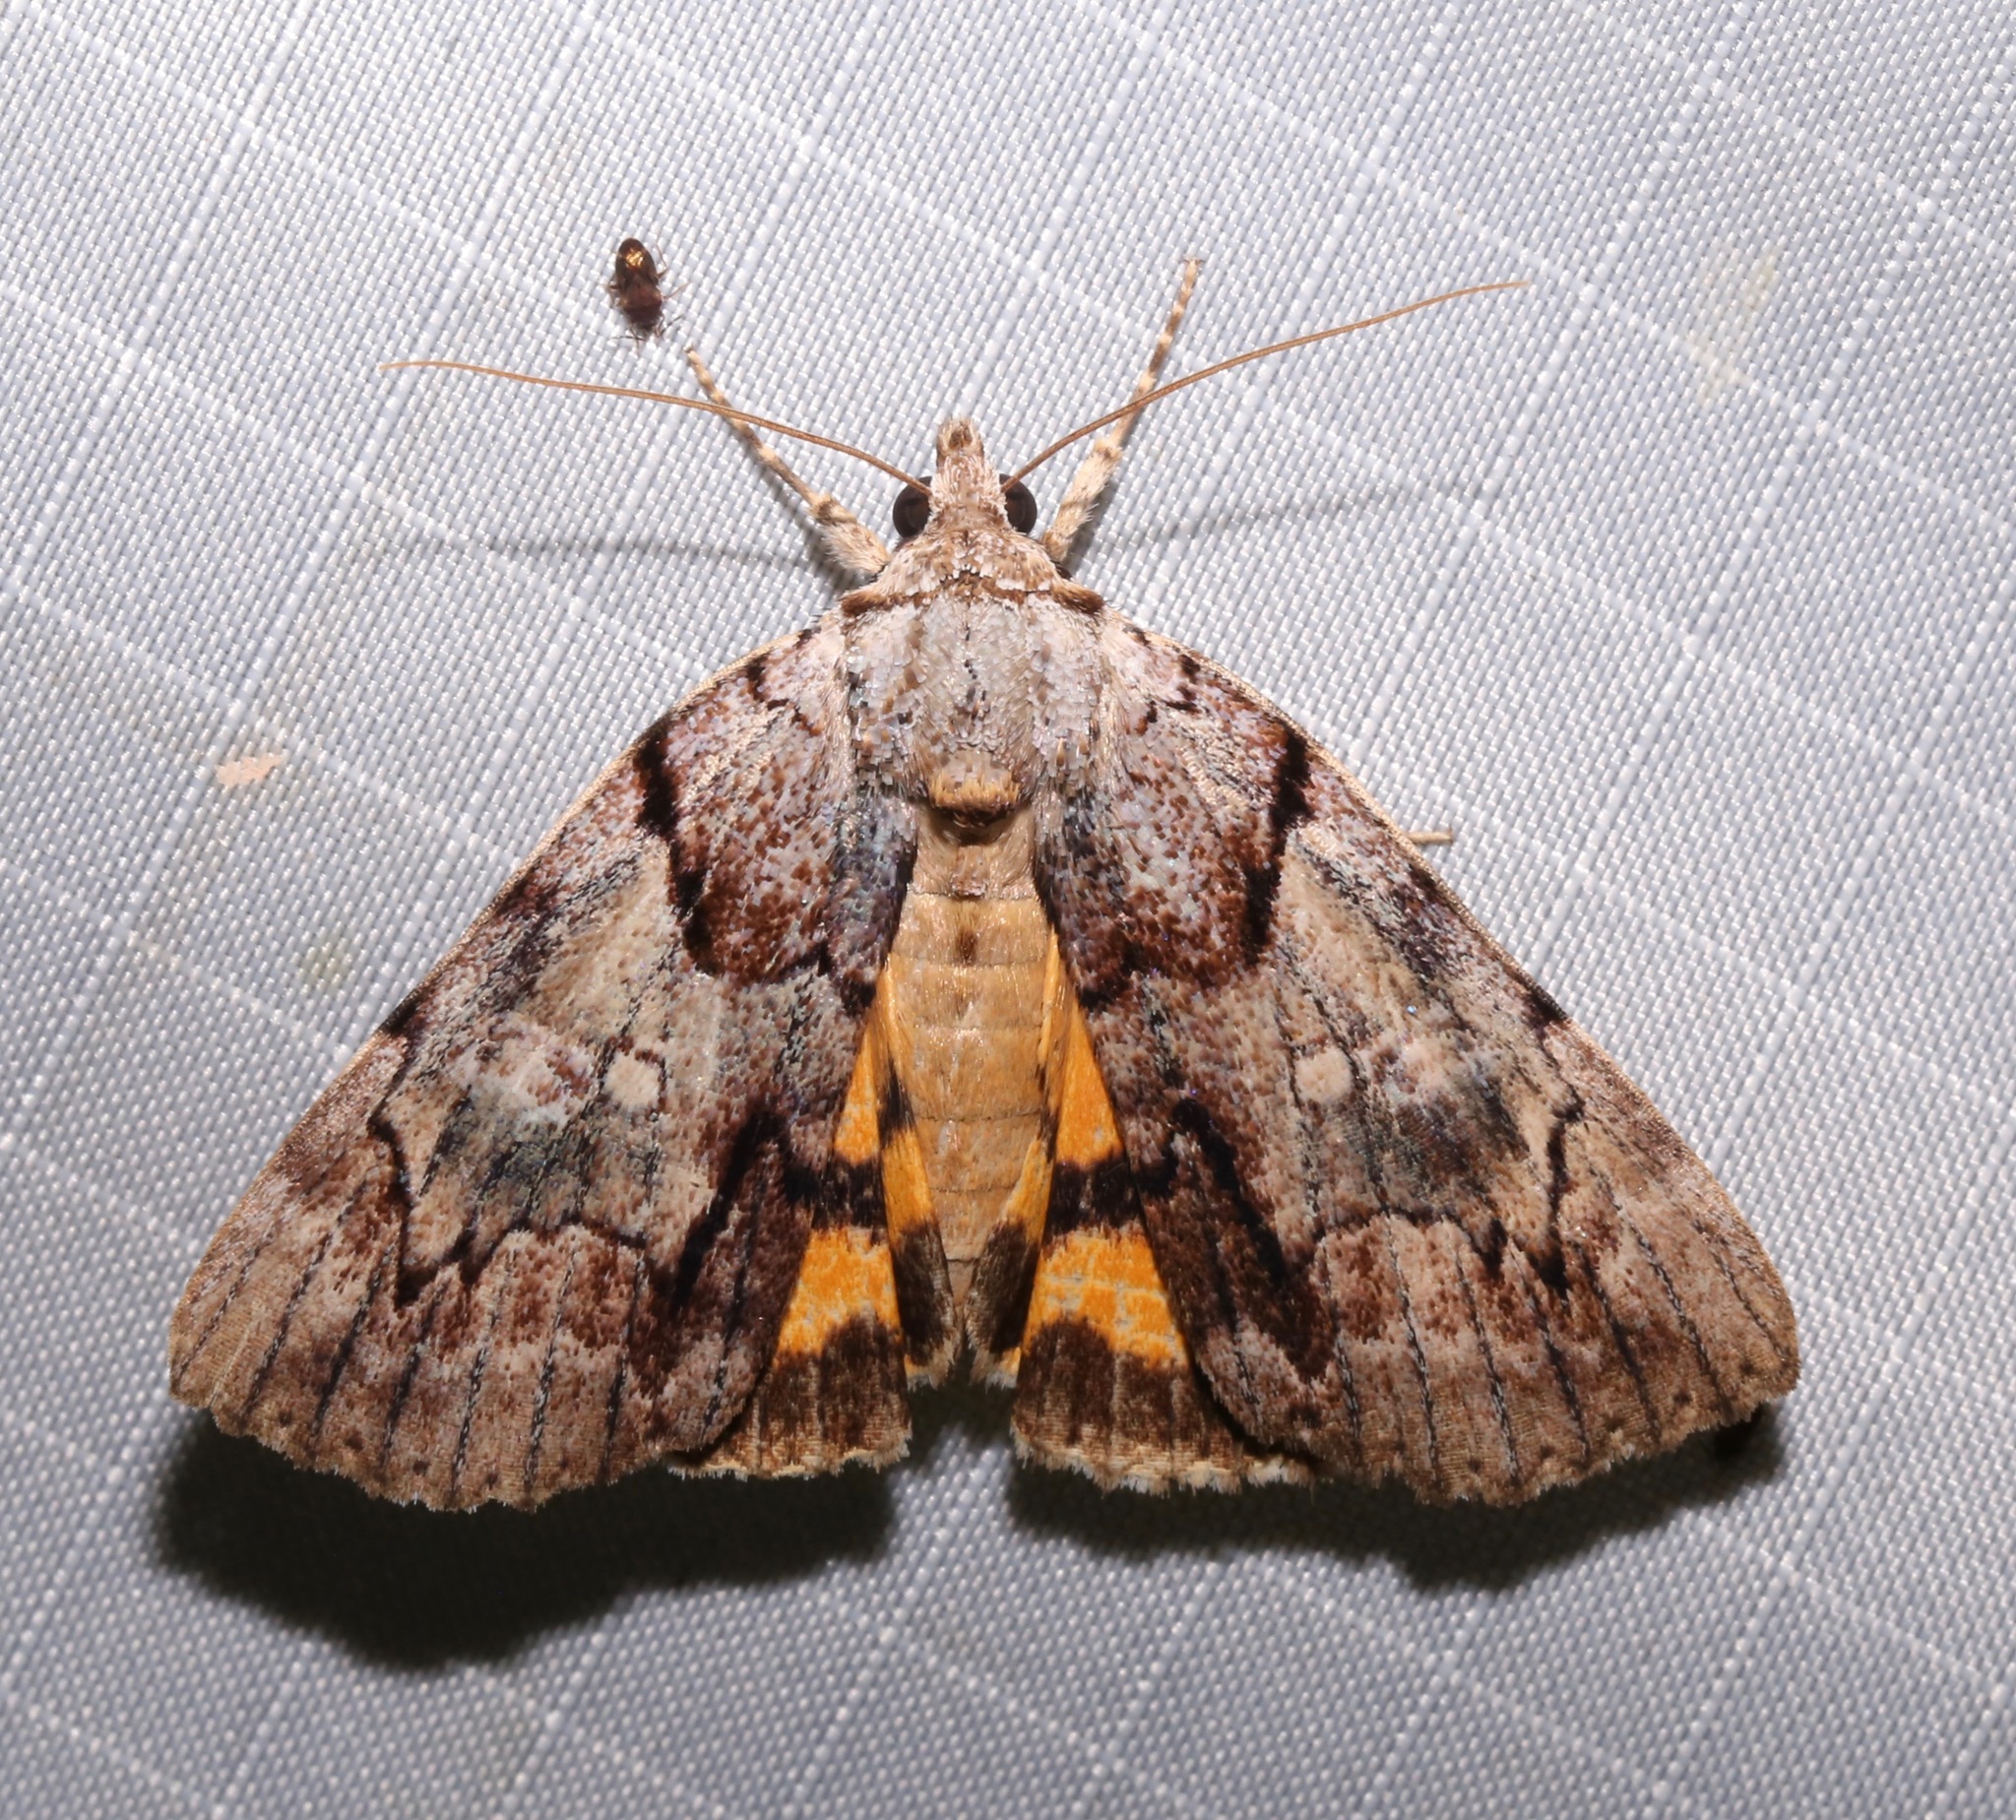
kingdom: Animalia
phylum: Arthropoda
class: Insecta
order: Lepidoptera
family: Erebidae
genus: Catocala
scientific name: Catocala praeclara
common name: Praeclara underwing
